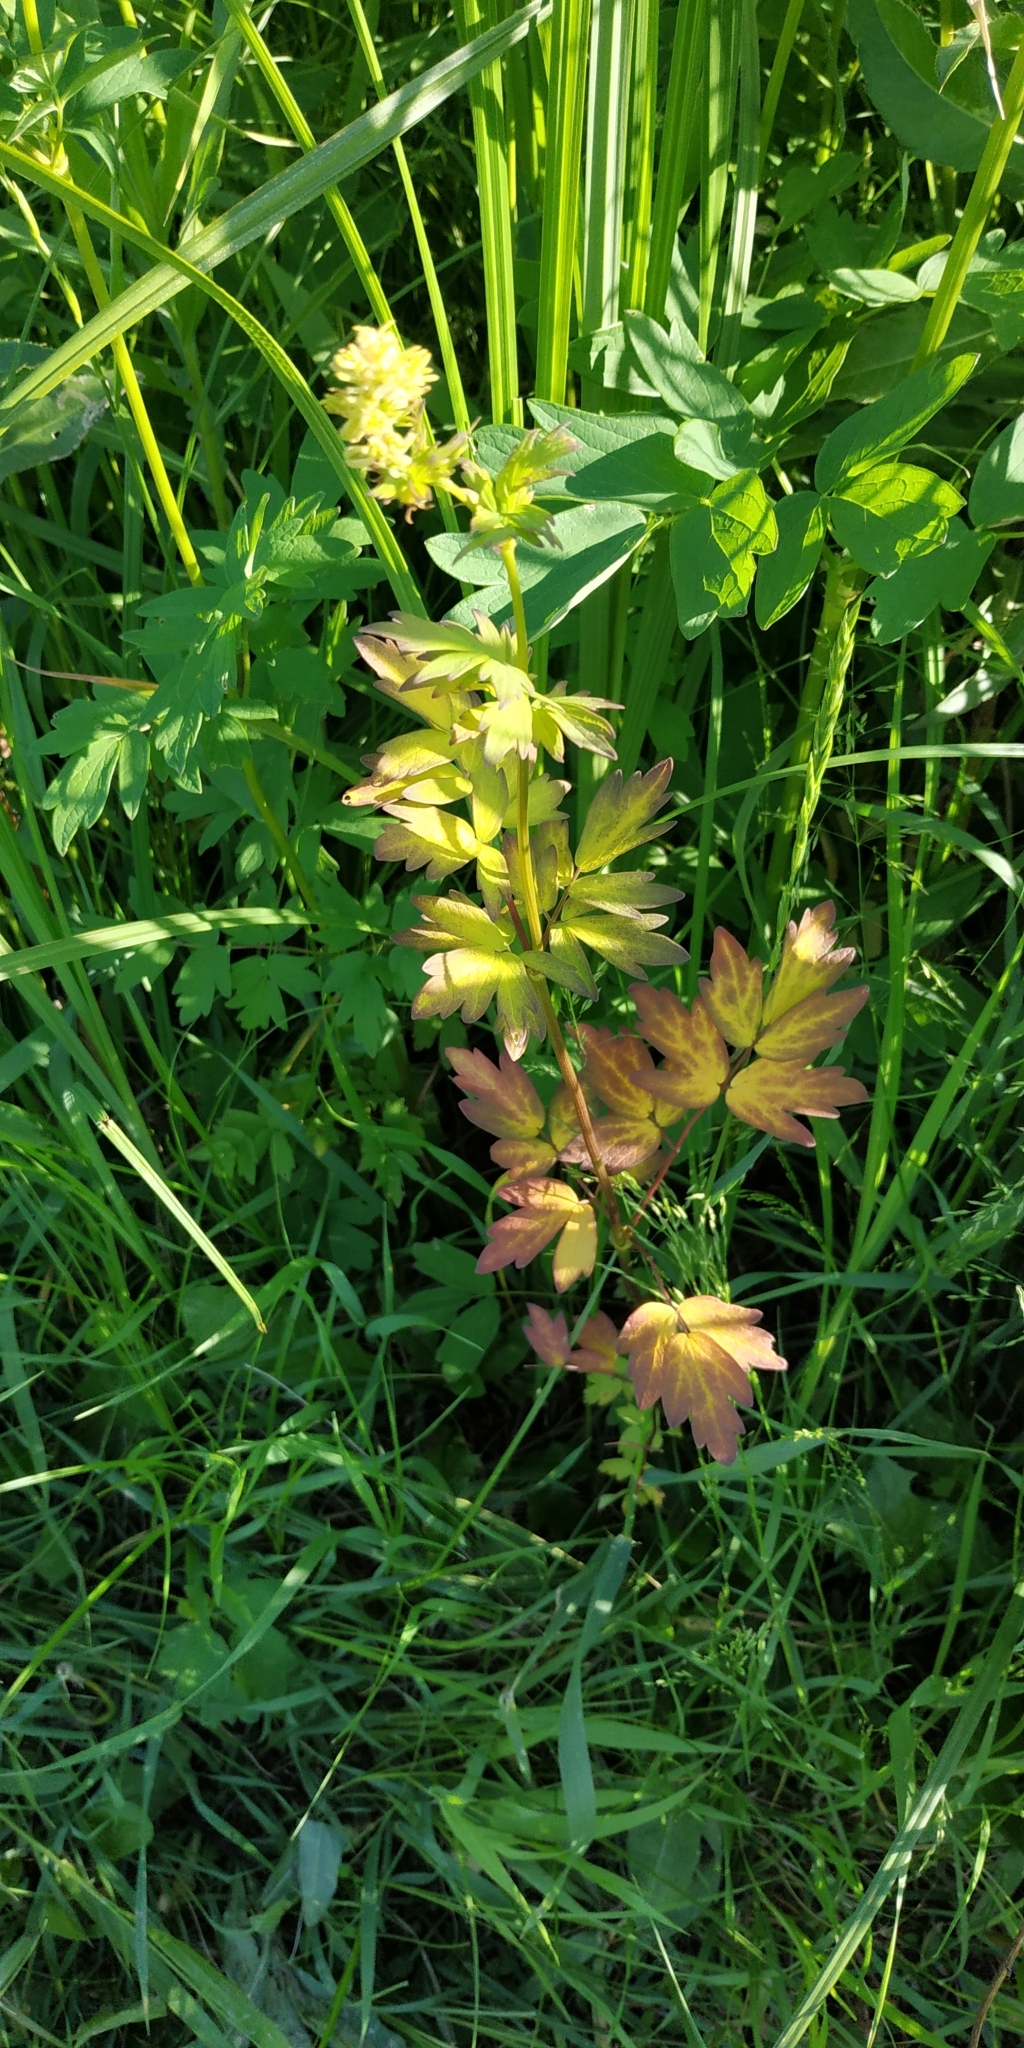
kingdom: Plantae
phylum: Tracheophyta
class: Magnoliopsida
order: Ranunculales
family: Ranunculaceae
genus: Thalictrum
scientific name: Thalictrum flavum
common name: Common meadow-rue
